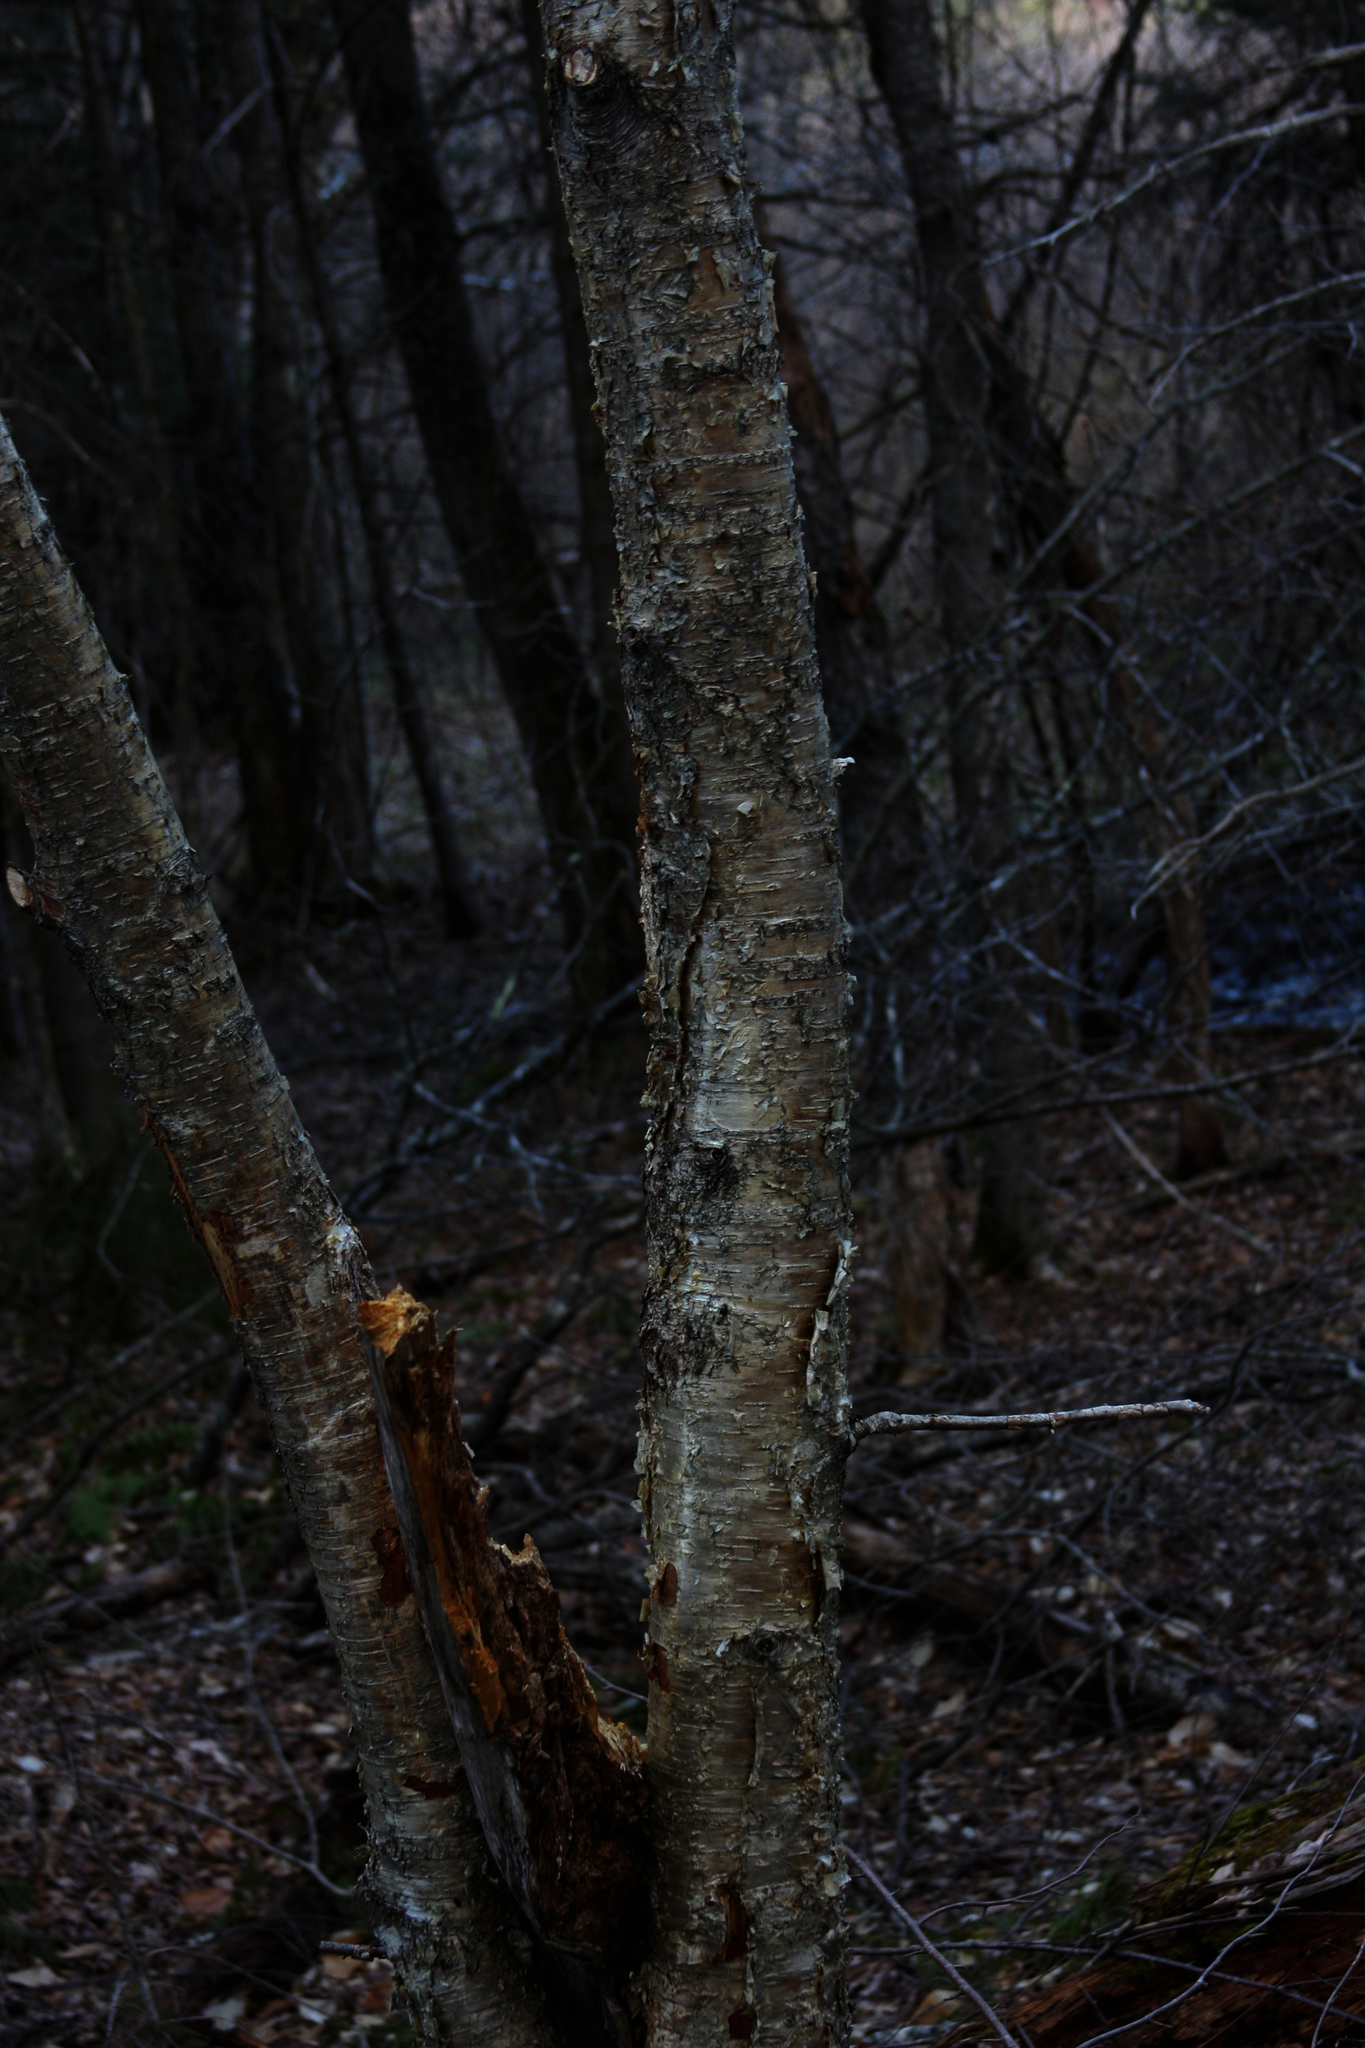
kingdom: Plantae
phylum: Tracheophyta
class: Magnoliopsida
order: Fagales
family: Betulaceae
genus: Betula
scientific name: Betula alleghaniensis
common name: Yellow birch
